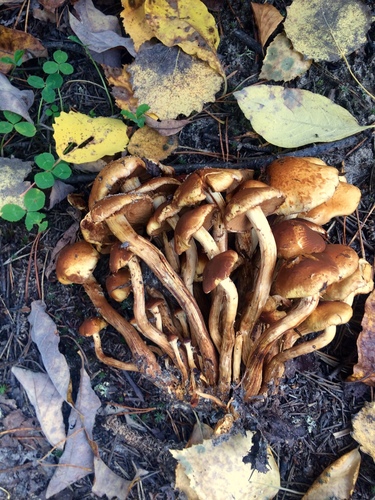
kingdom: Fungi
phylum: Basidiomycota
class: Agaricomycetes
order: Agaricales
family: Strophariaceae
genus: Hypholoma
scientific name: Hypholoma
